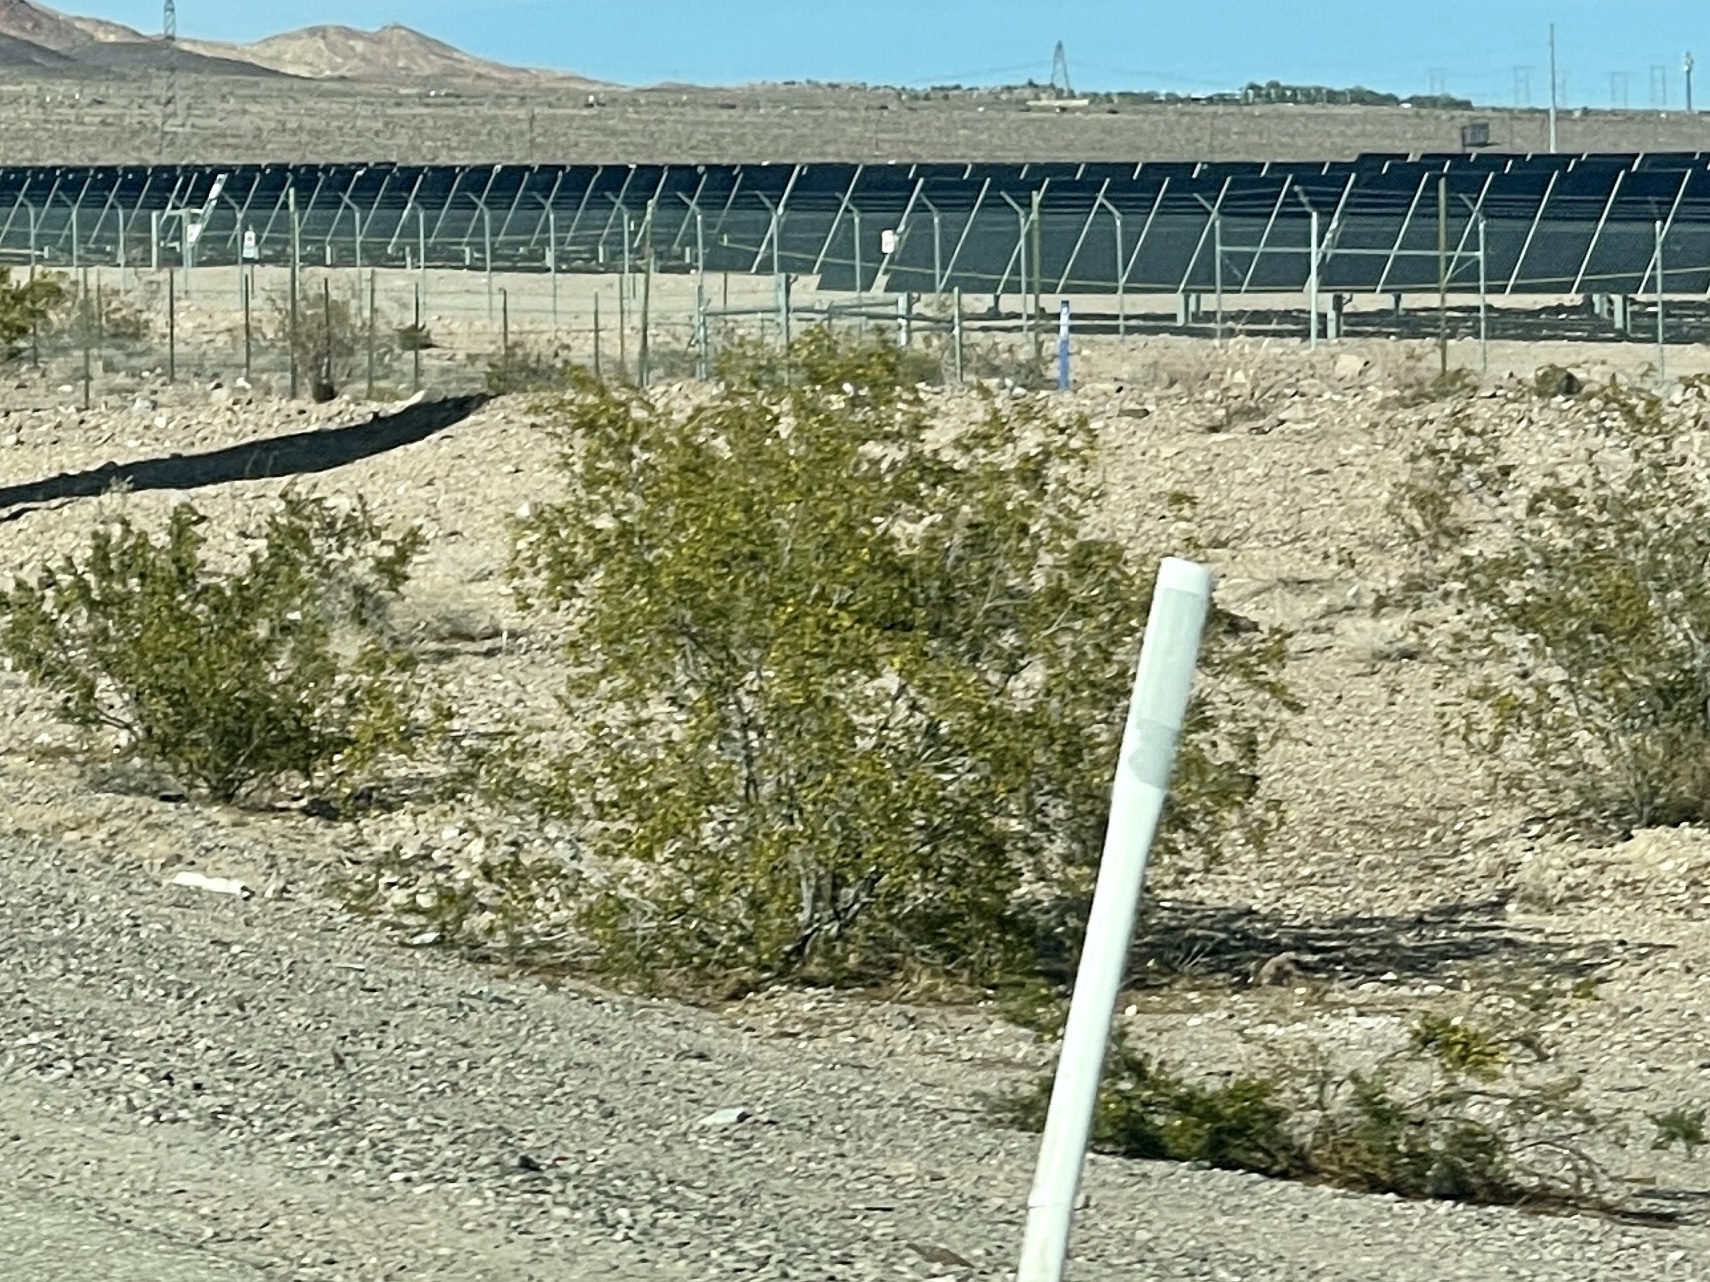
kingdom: Plantae
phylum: Tracheophyta
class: Magnoliopsida
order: Zygophyllales
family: Zygophyllaceae
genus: Larrea
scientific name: Larrea tridentata
